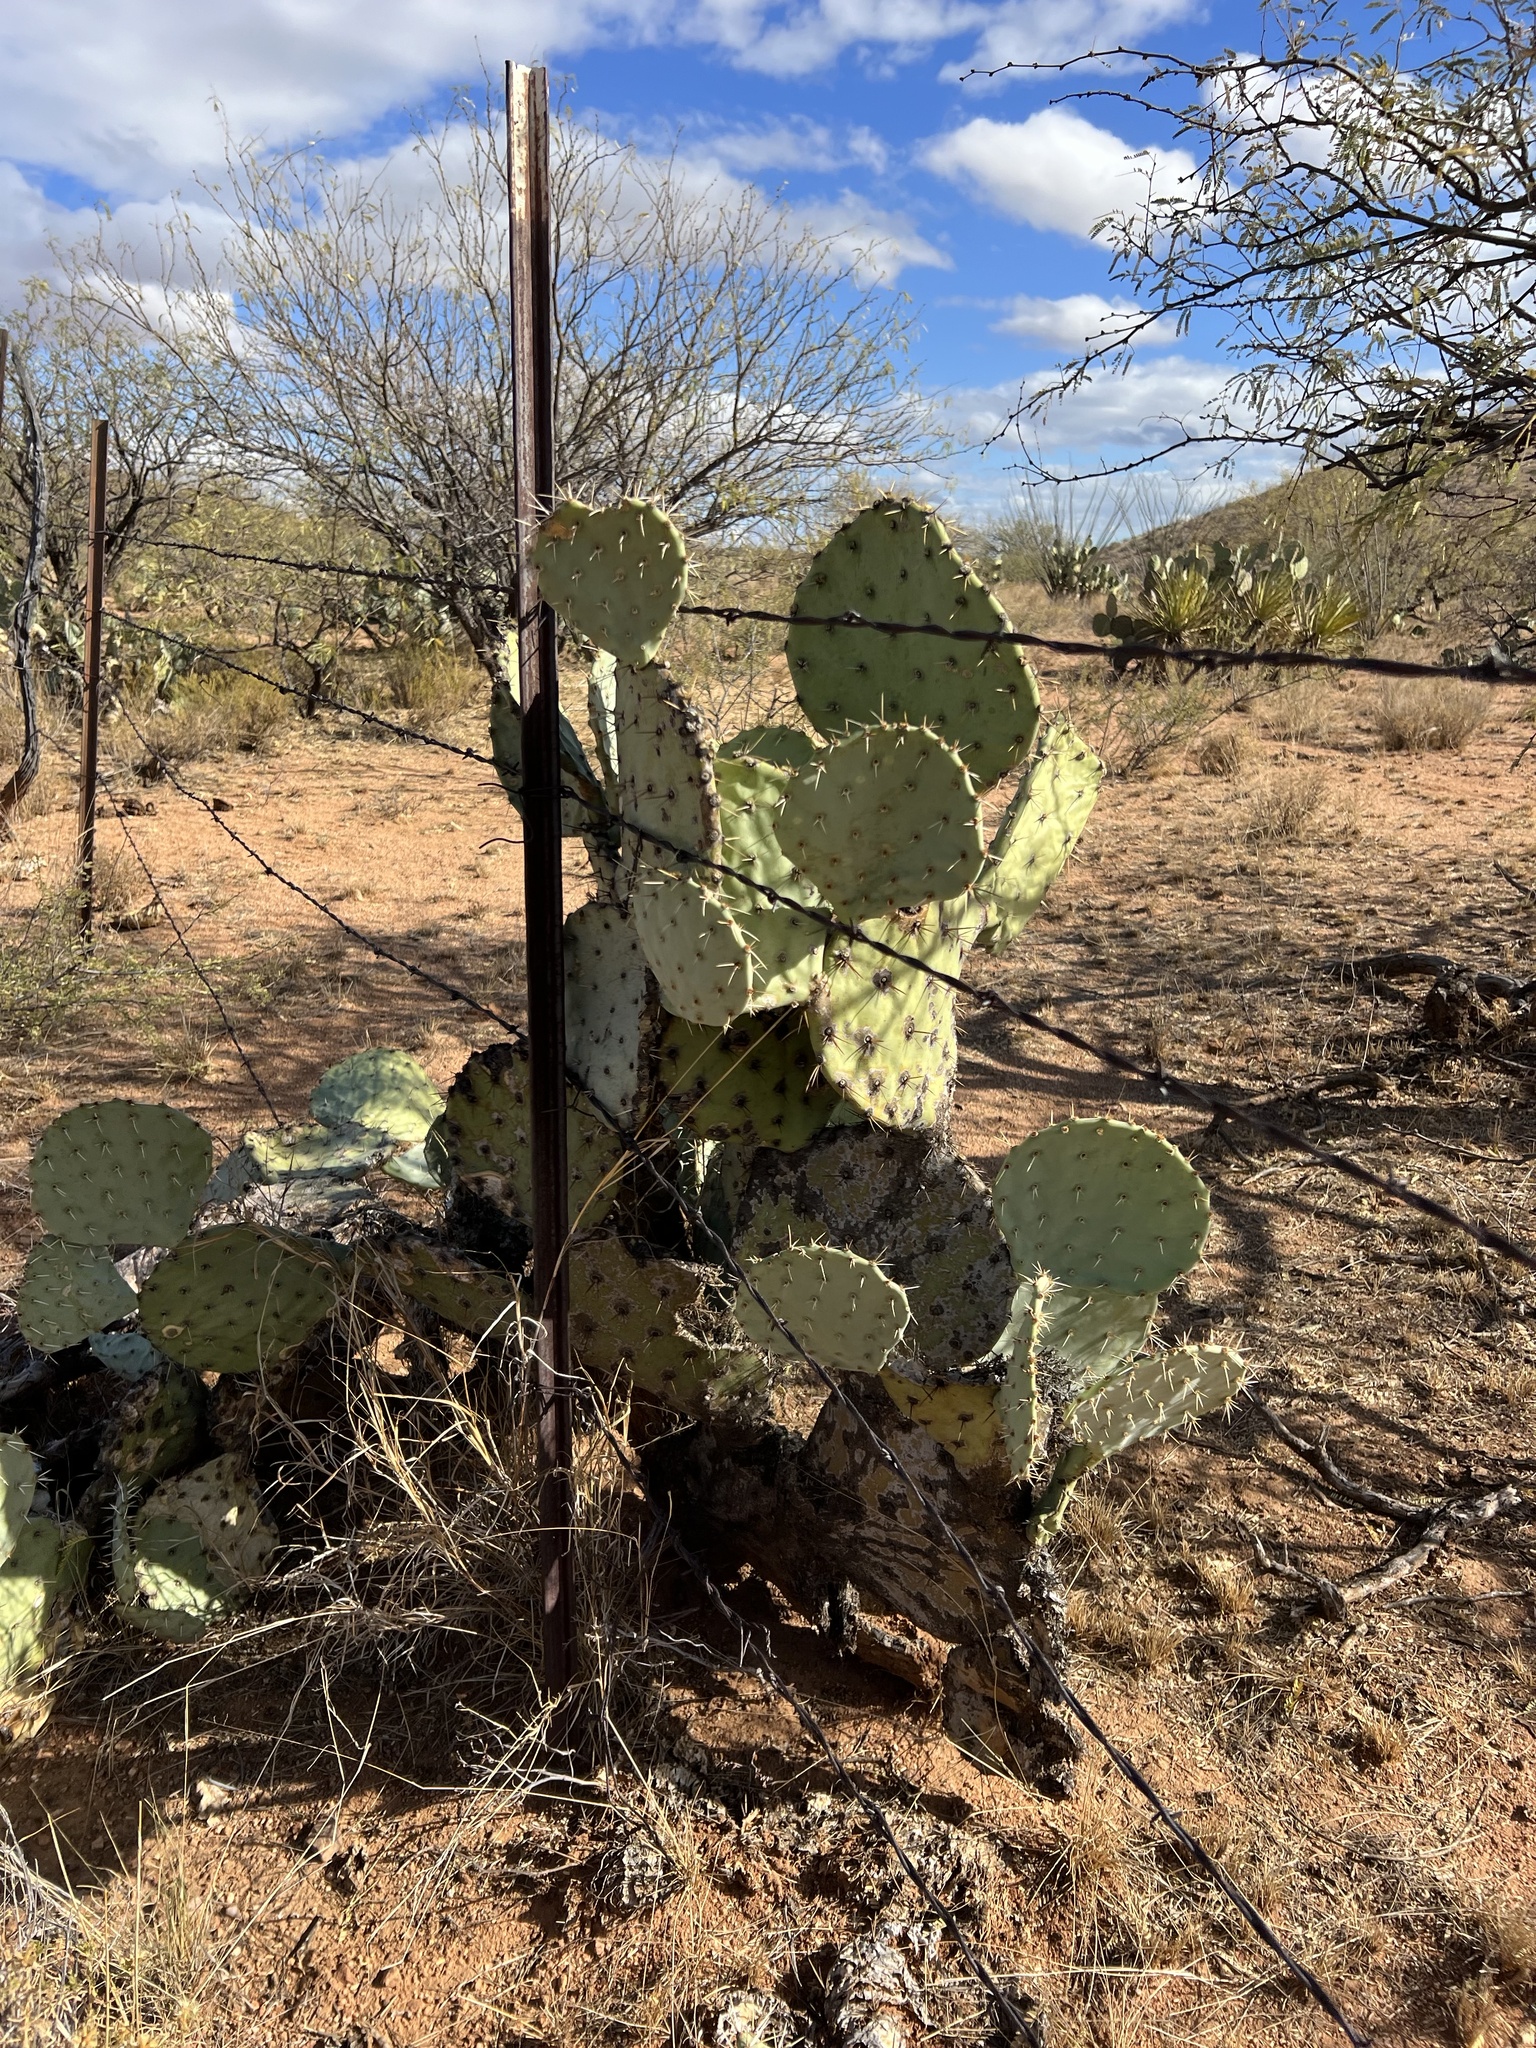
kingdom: Plantae
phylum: Tracheophyta
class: Magnoliopsida
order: Caryophyllales
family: Cactaceae
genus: Opuntia
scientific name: Opuntia engelmannii
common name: Cactus-apple
